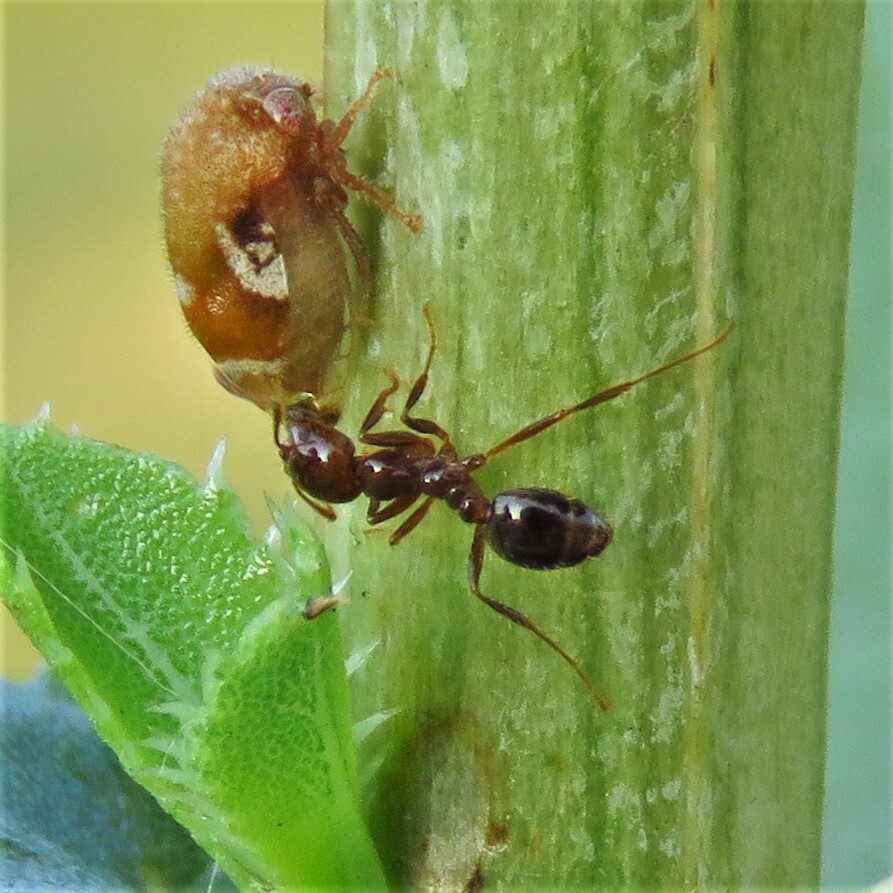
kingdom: Animalia
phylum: Arthropoda
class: Insecta
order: Hymenoptera
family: Formicidae
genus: Solenopsis
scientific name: Solenopsis invicta
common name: Red imported fire ant
